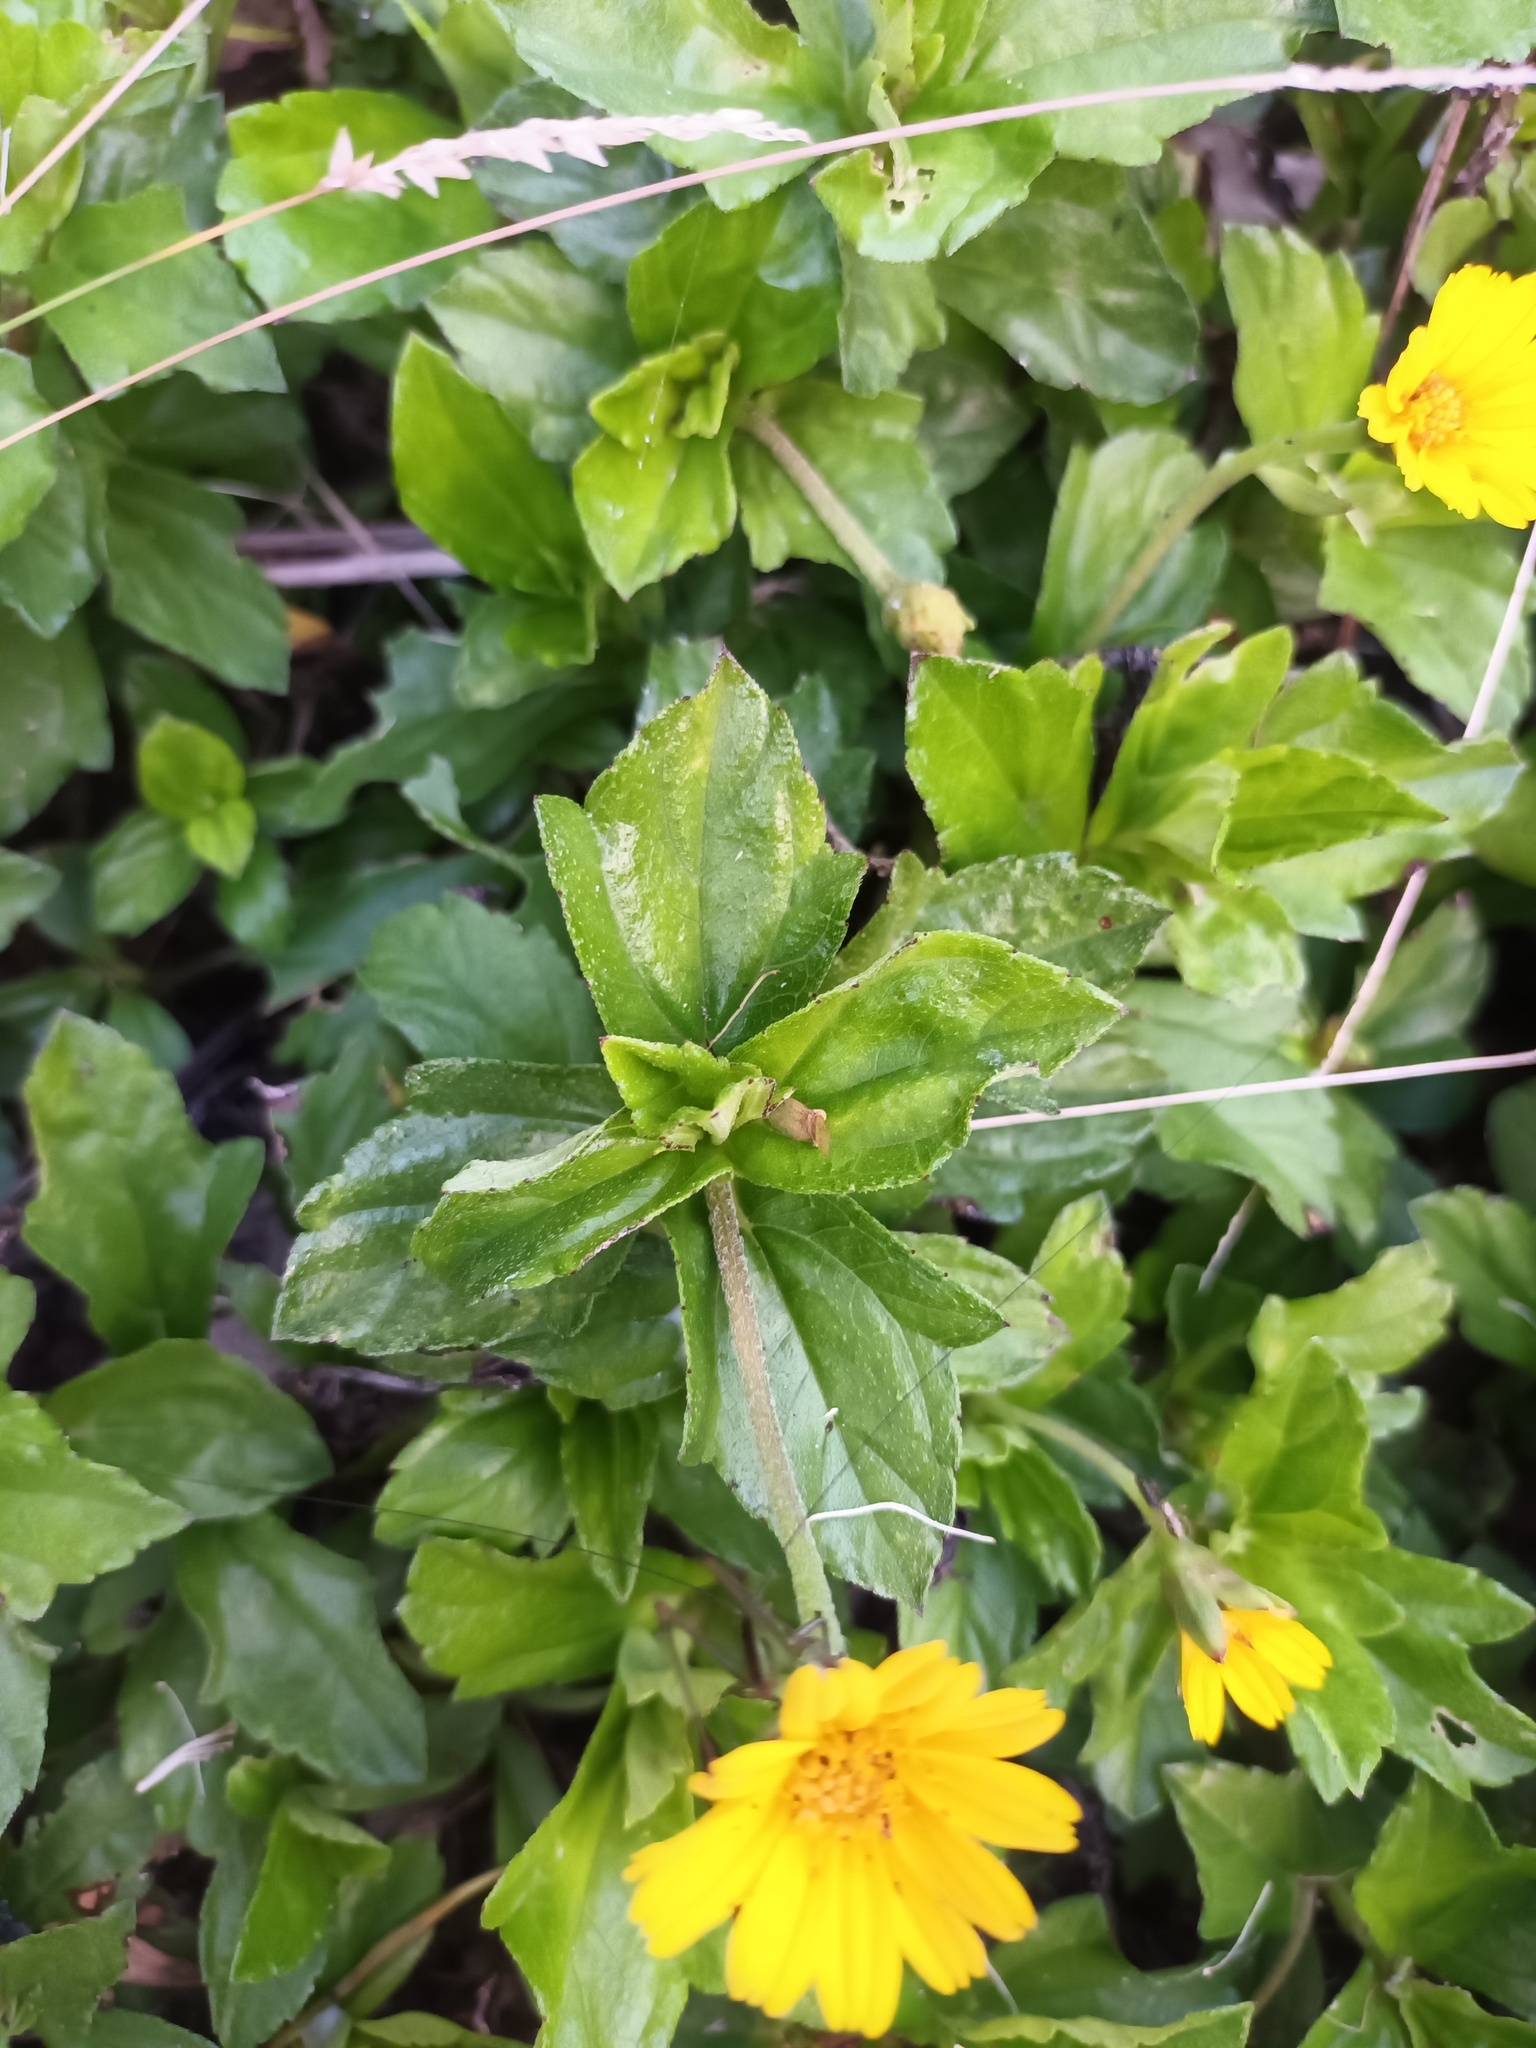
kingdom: Plantae
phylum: Tracheophyta
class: Magnoliopsida
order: Asterales
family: Asteraceae
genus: Sphagneticola
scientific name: Sphagneticola trilobata
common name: Bay biscayne creeping-oxeye
